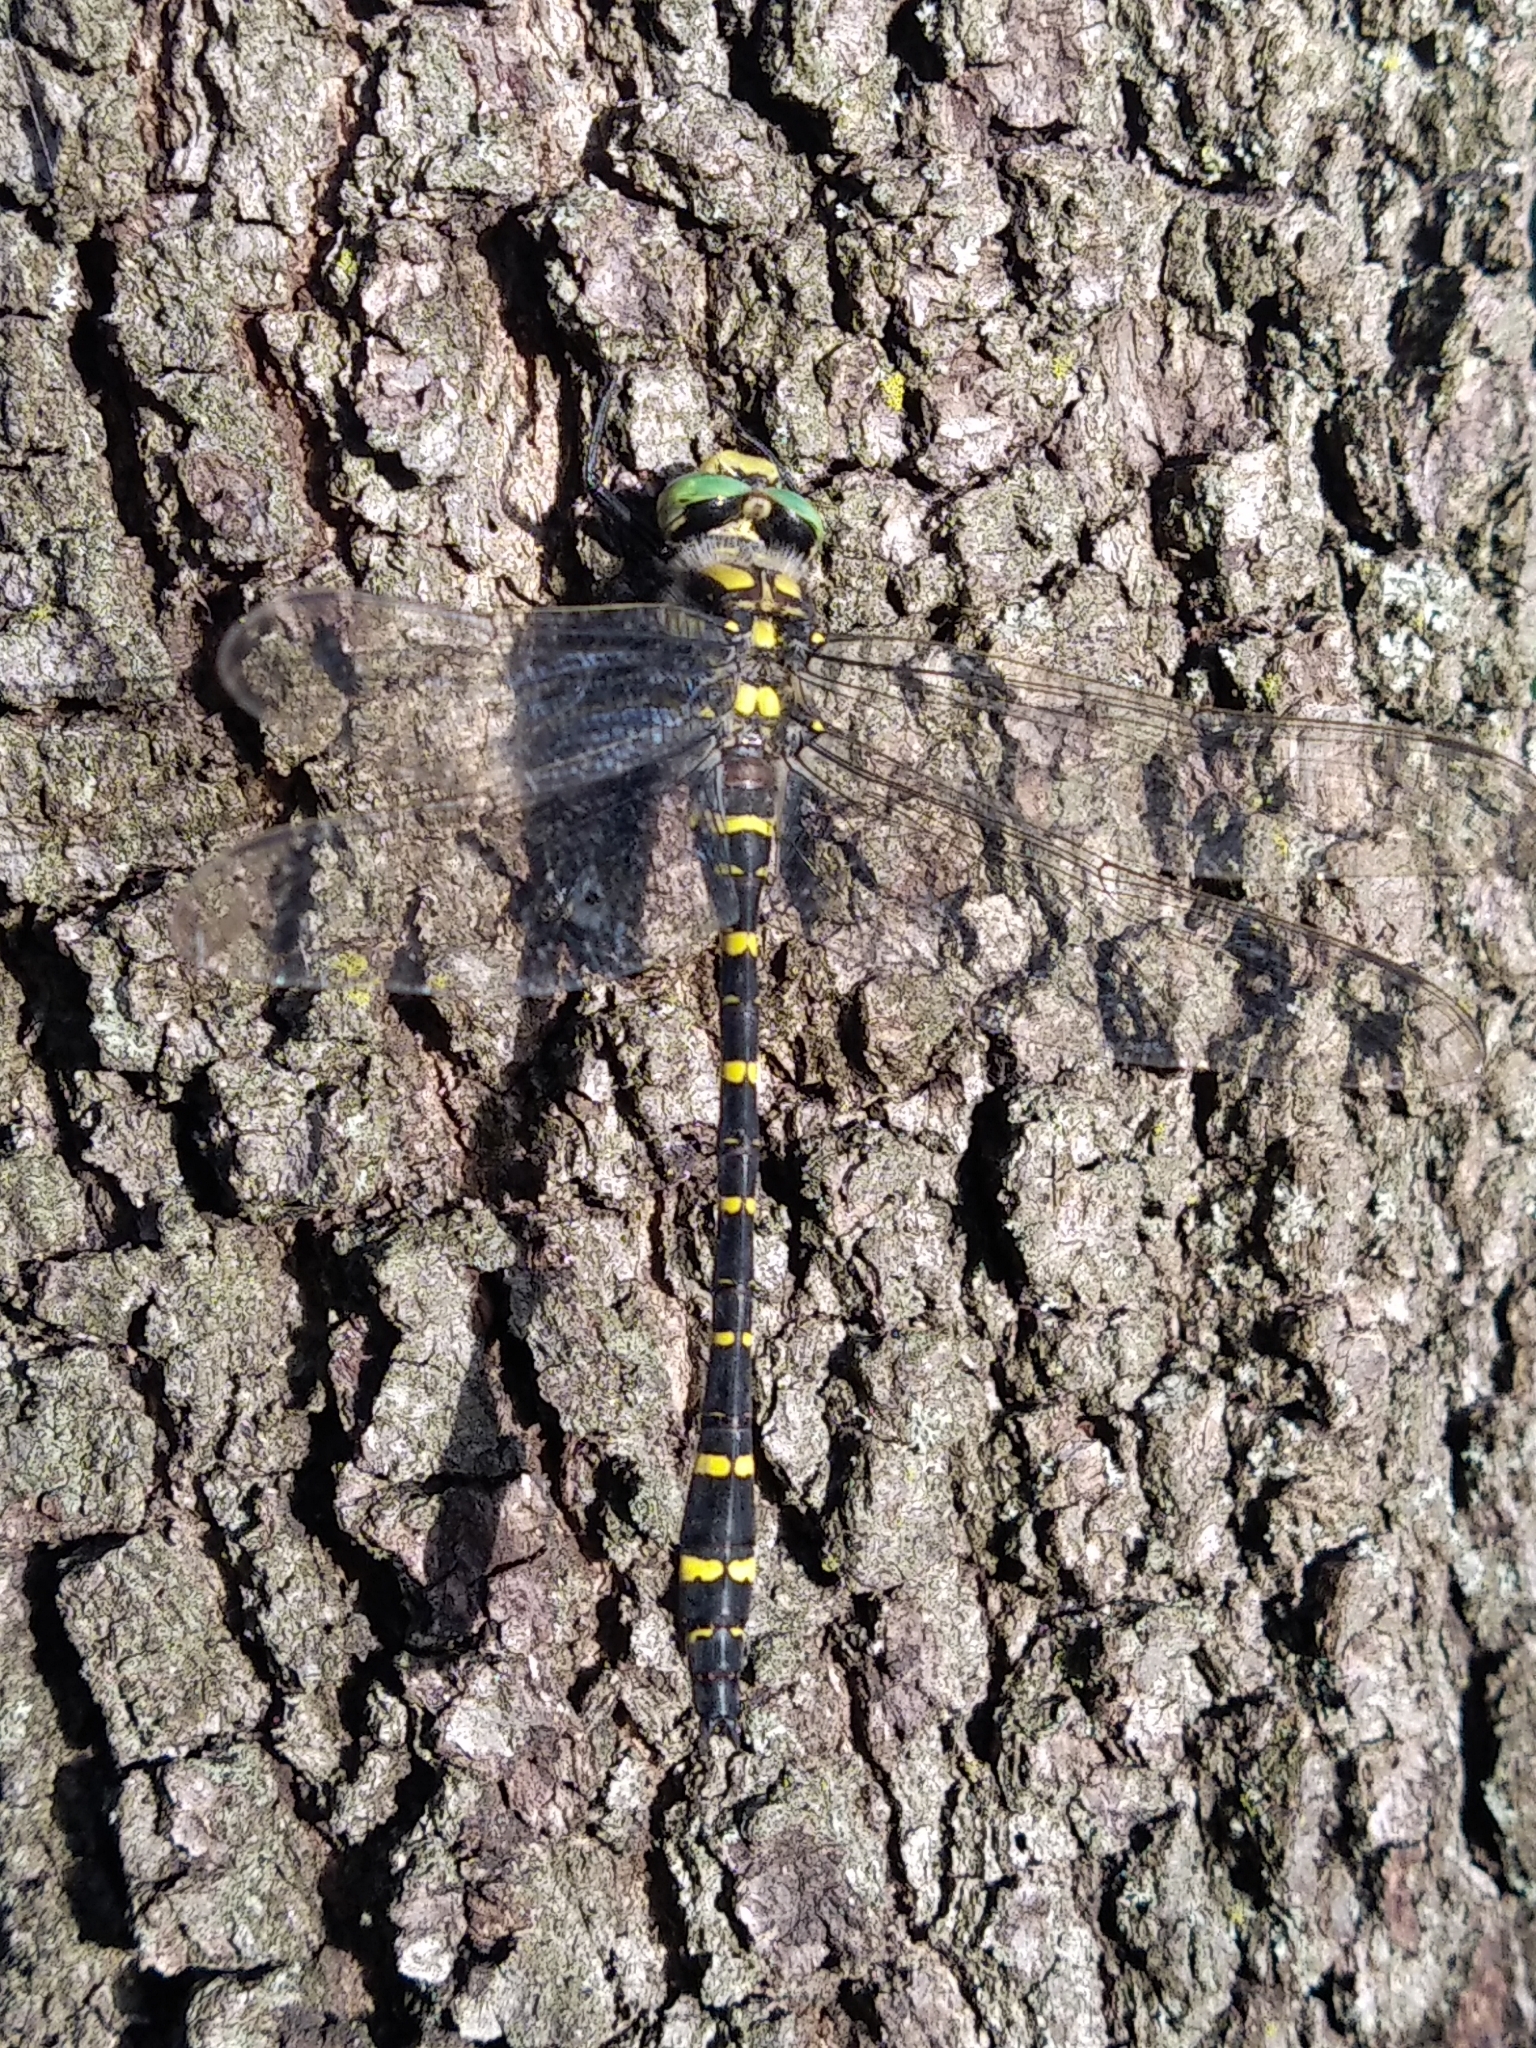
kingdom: Animalia
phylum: Arthropoda
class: Insecta
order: Odonata
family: Cordulegastridae
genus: Cordulegaster
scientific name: Cordulegaster boltonii
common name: Golden-ringed dragonfly
